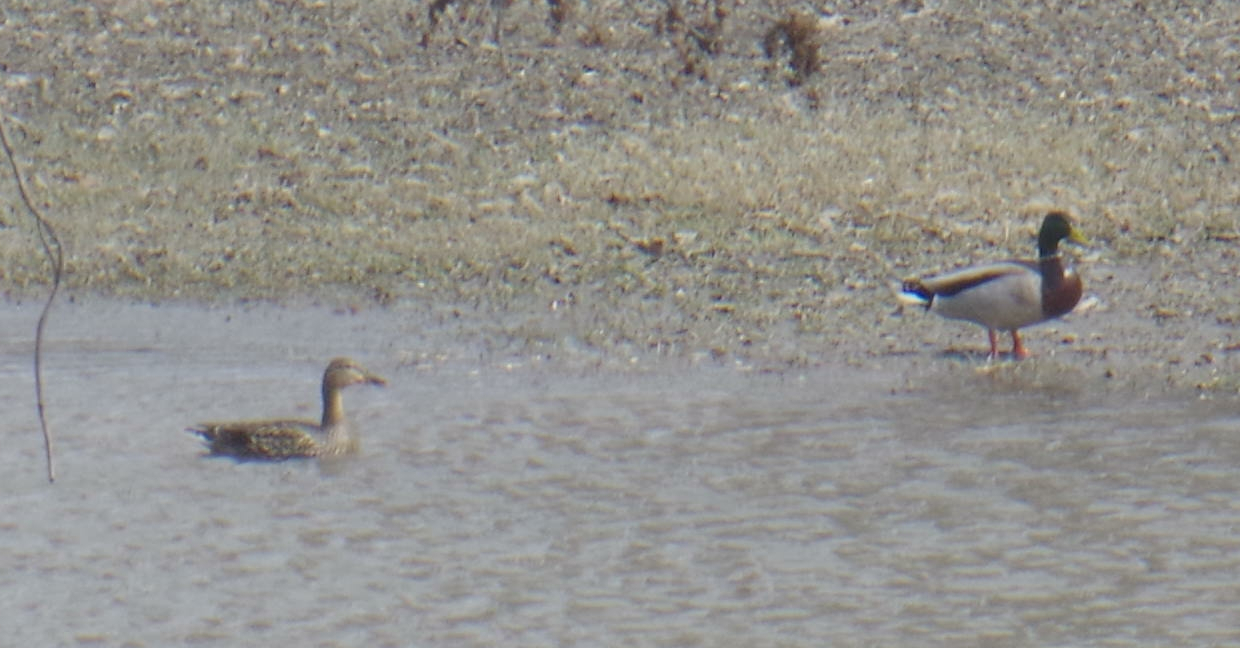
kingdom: Animalia
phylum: Chordata
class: Aves
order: Anseriformes
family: Anatidae
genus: Anas
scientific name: Anas platyrhynchos
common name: Mallard
